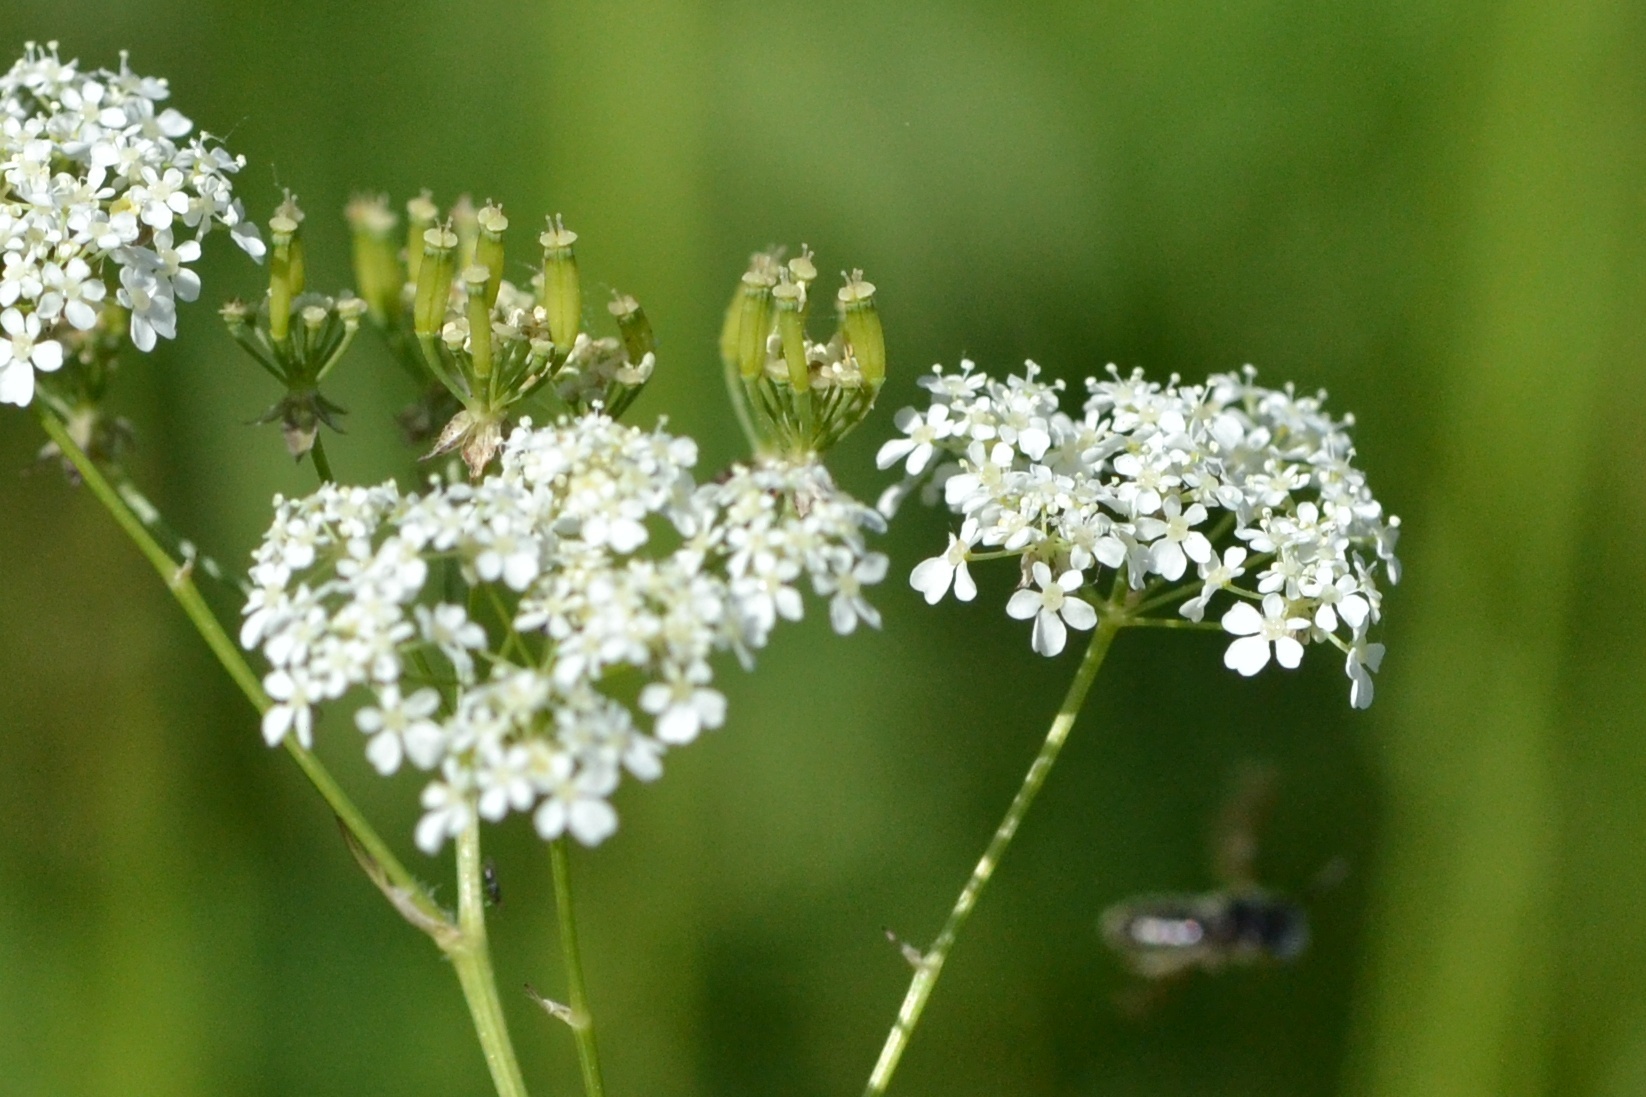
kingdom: Plantae
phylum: Tracheophyta
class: Magnoliopsida
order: Apiales
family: Apiaceae
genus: Anthriscus
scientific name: Anthriscus sylvestris
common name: Cow parsley
